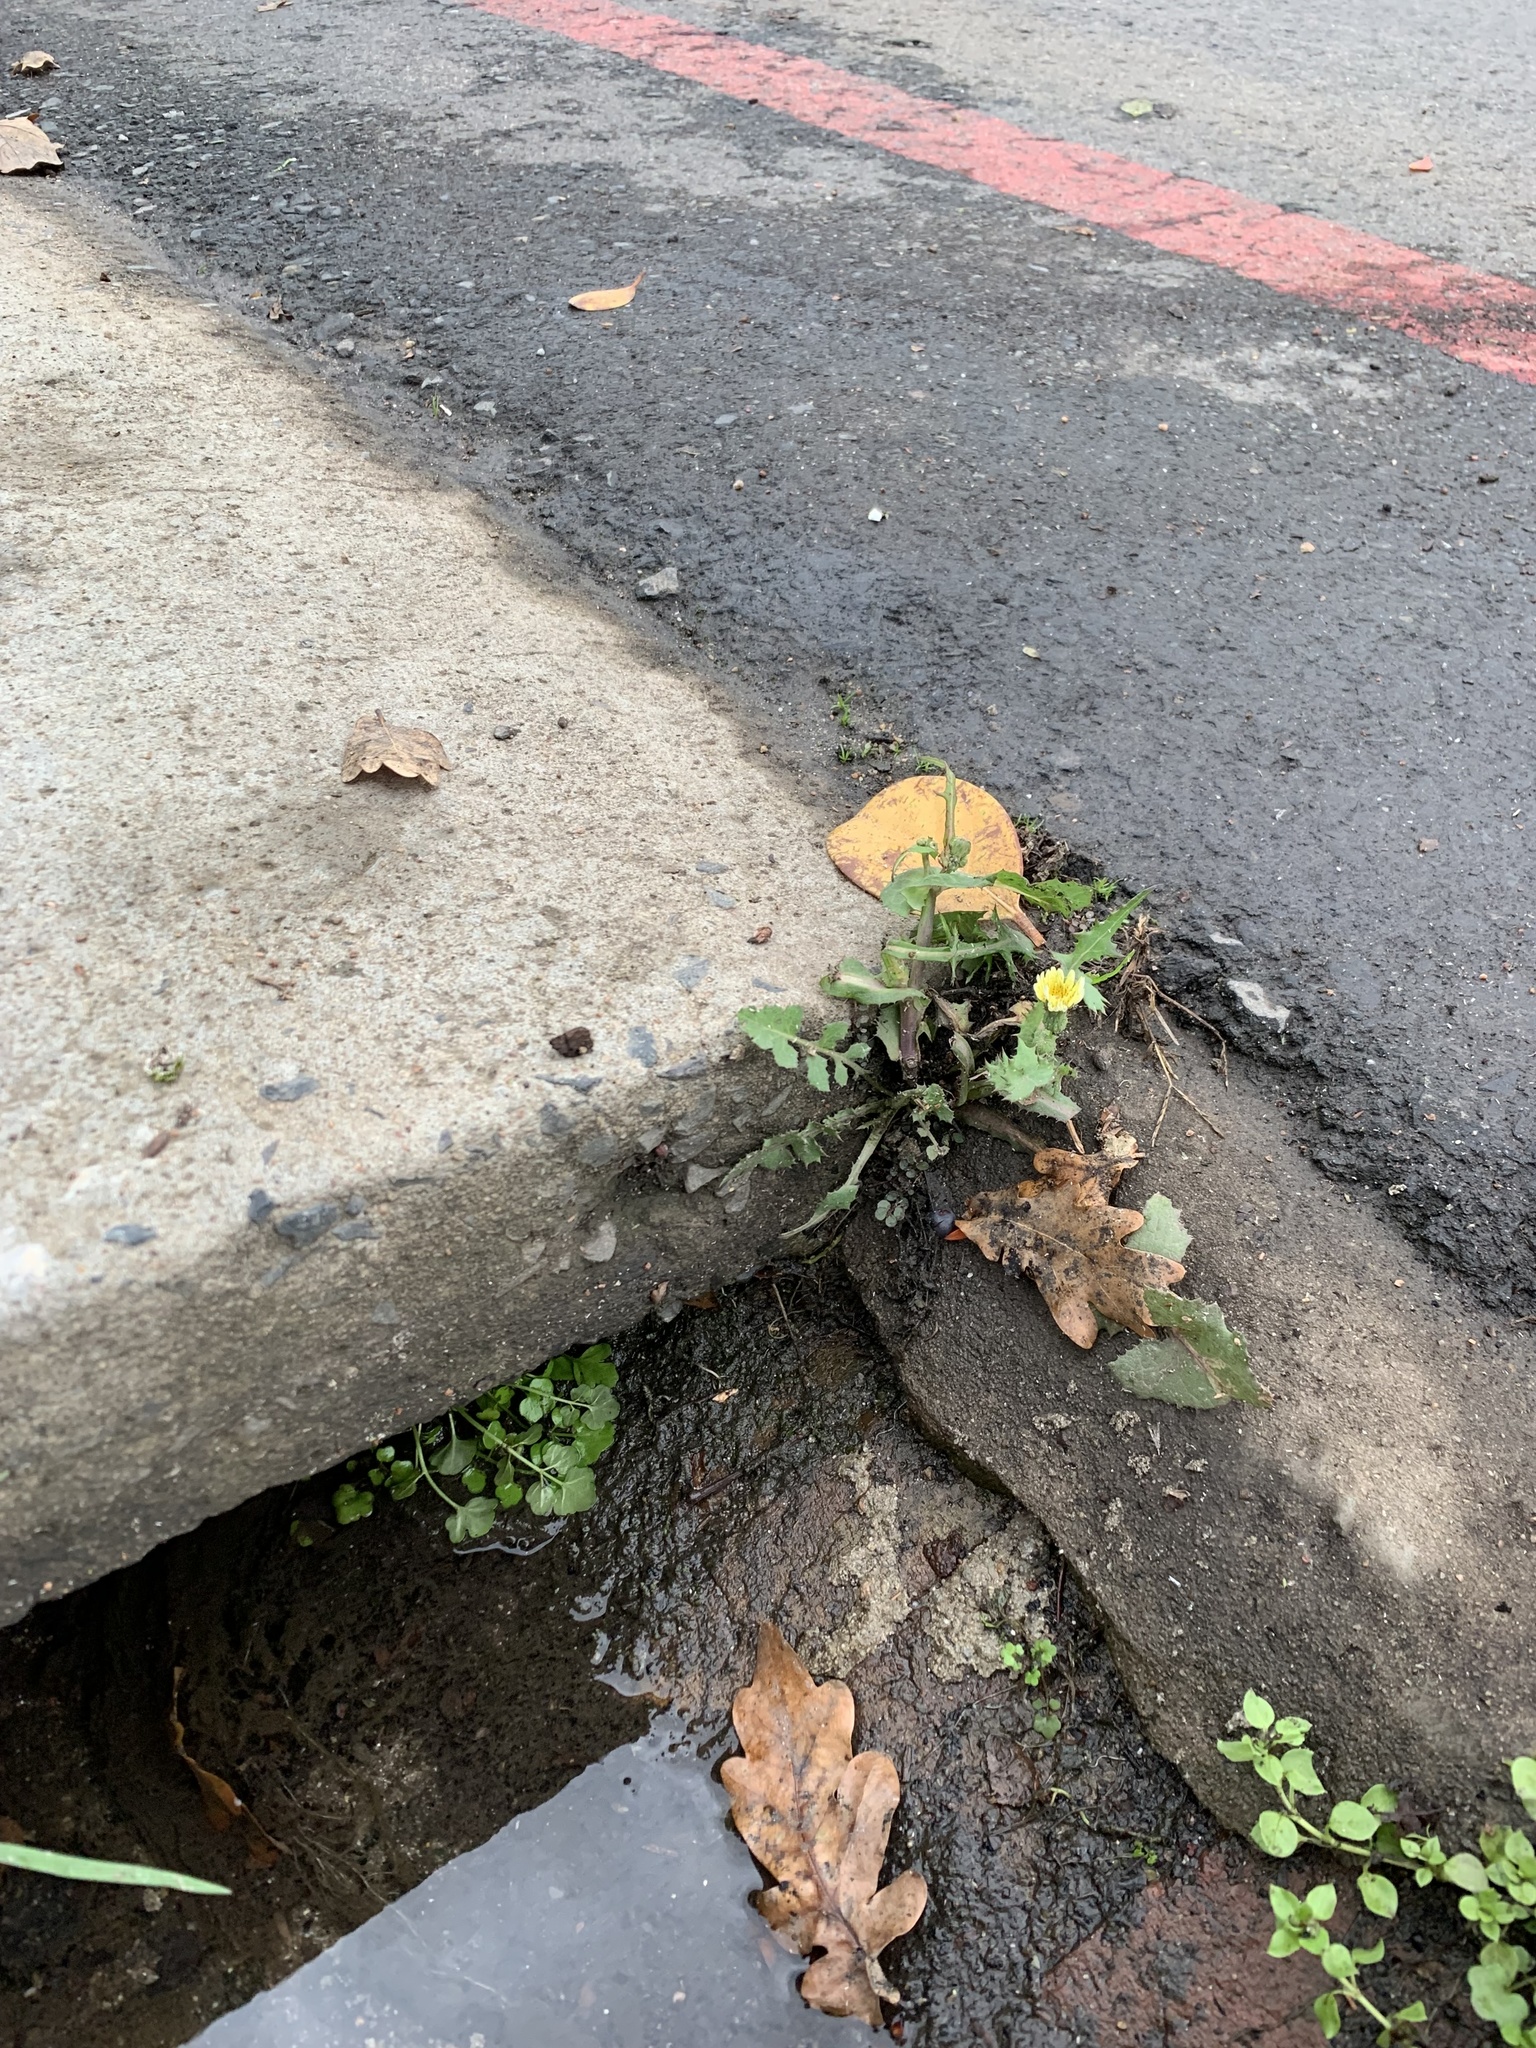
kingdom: Plantae
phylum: Tracheophyta
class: Magnoliopsida
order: Asterales
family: Asteraceae
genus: Sonchus
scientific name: Sonchus oleraceus
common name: Common sowthistle
